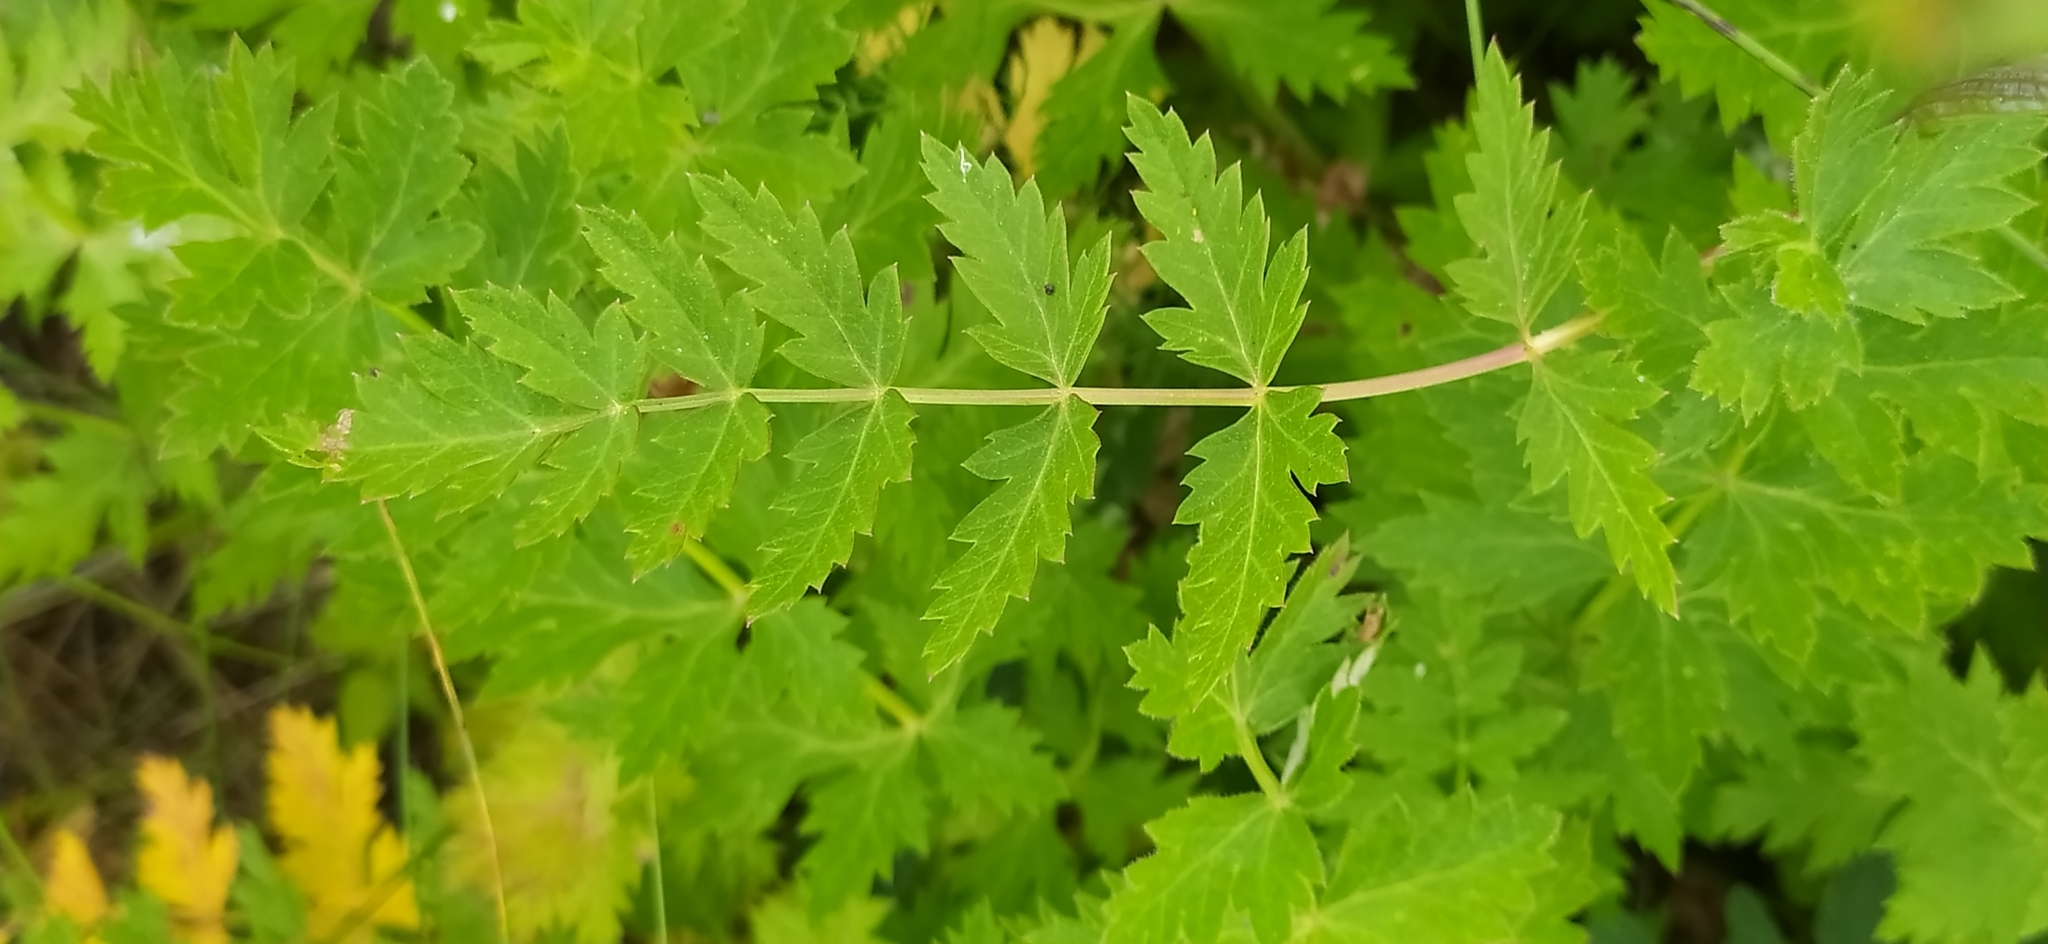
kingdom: Plantae
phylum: Tracheophyta
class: Magnoliopsida
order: Apiales
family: Apiaceae
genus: Seseli
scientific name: Seseli krylovii
